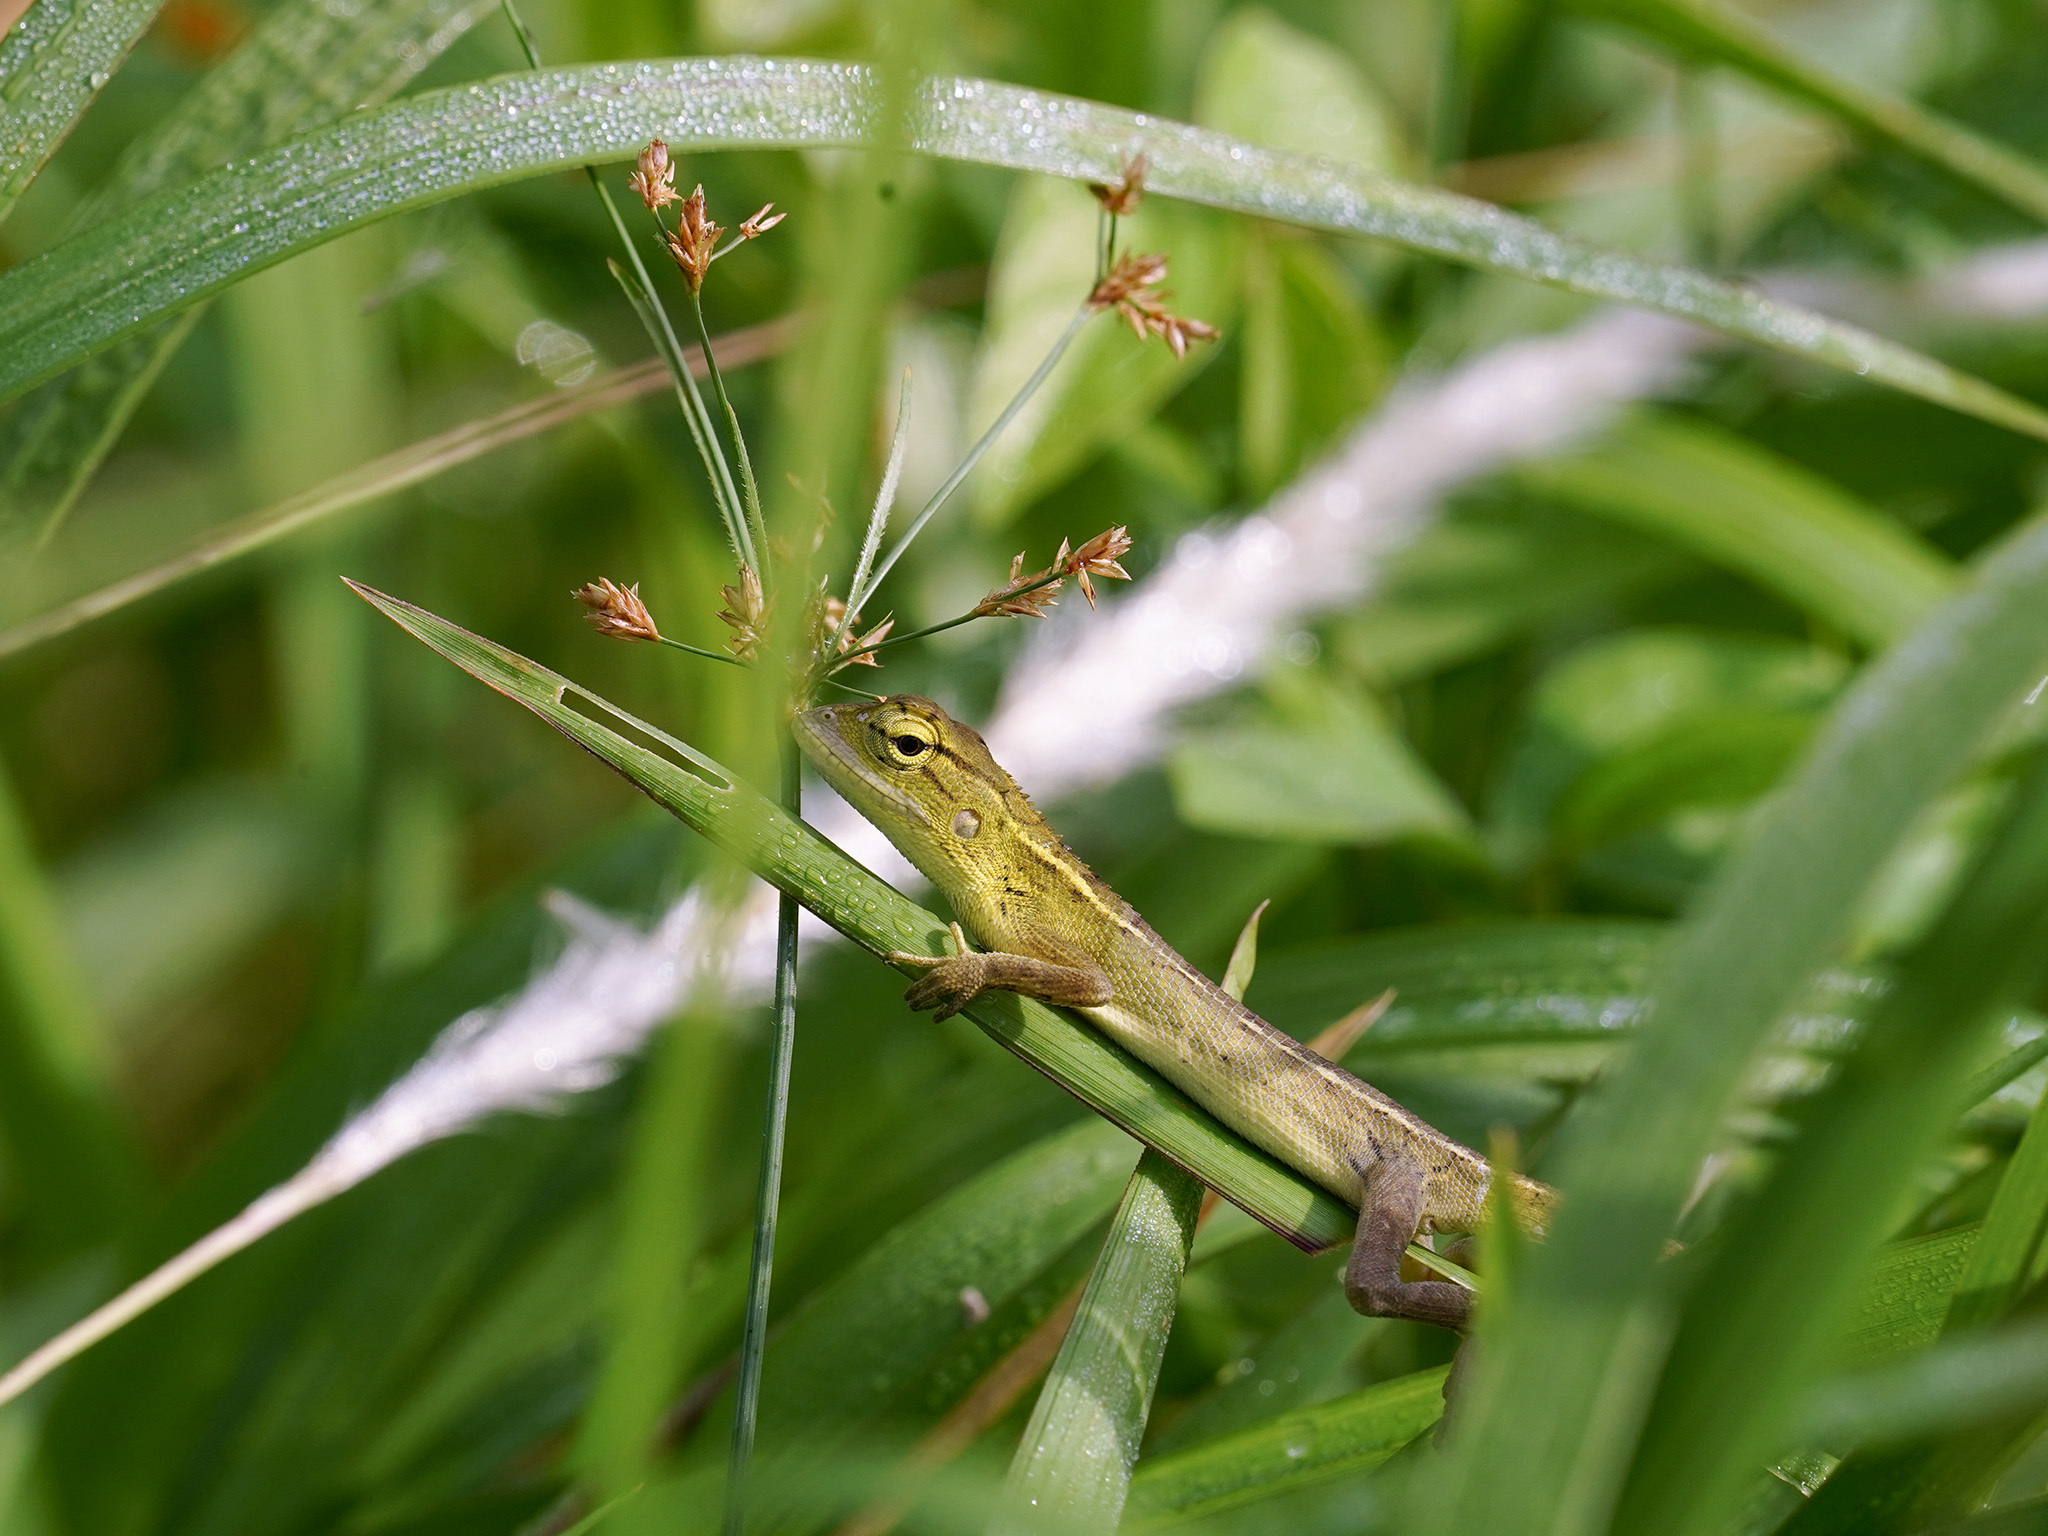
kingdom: Animalia
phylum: Chordata
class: Squamata
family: Agamidae
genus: Calotes
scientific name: Calotes versicolor
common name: Oriental garden lizard
